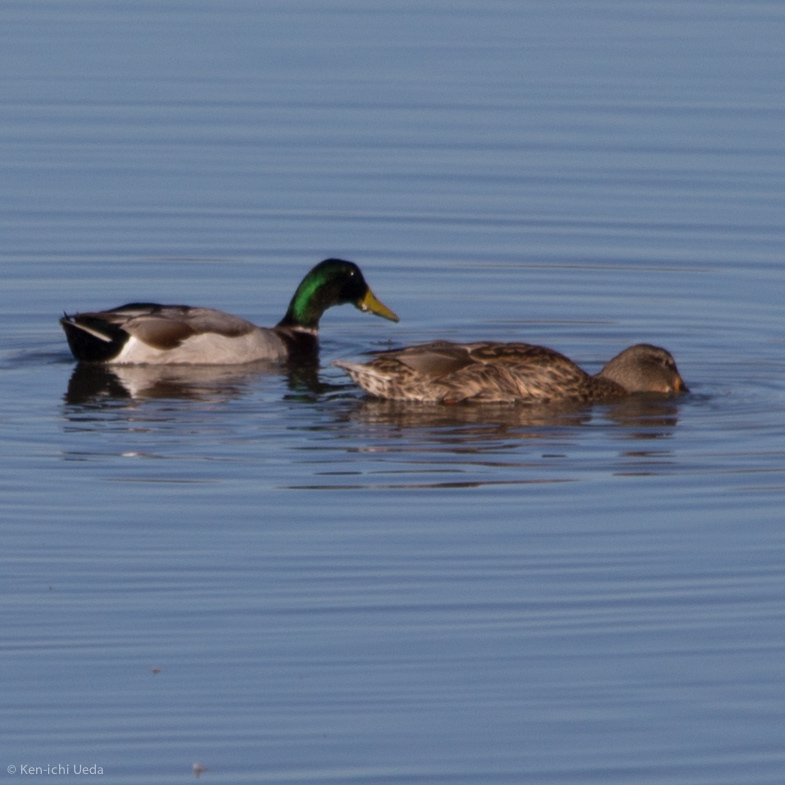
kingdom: Animalia
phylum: Chordata
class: Aves
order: Anseriformes
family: Anatidae
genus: Anas
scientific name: Anas platyrhynchos
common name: Mallard
